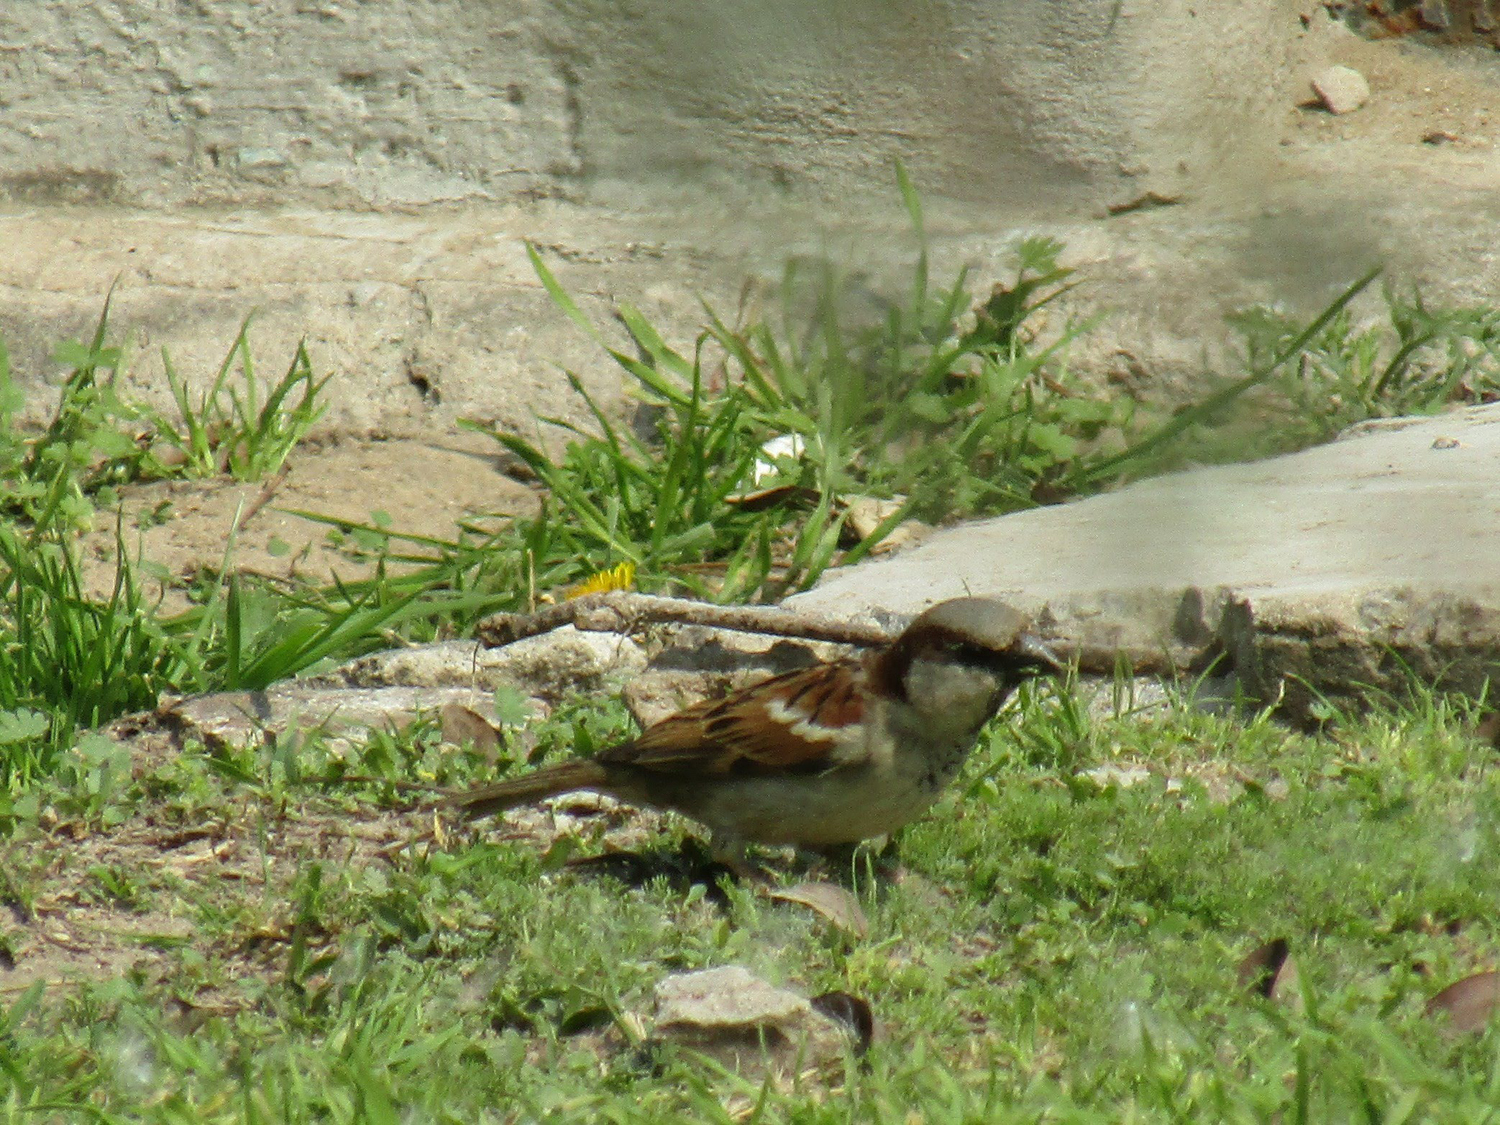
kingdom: Animalia
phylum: Chordata
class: Aves
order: Passeriformes
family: Passeridae
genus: Passer
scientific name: Passer domesticus
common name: House sparrow
